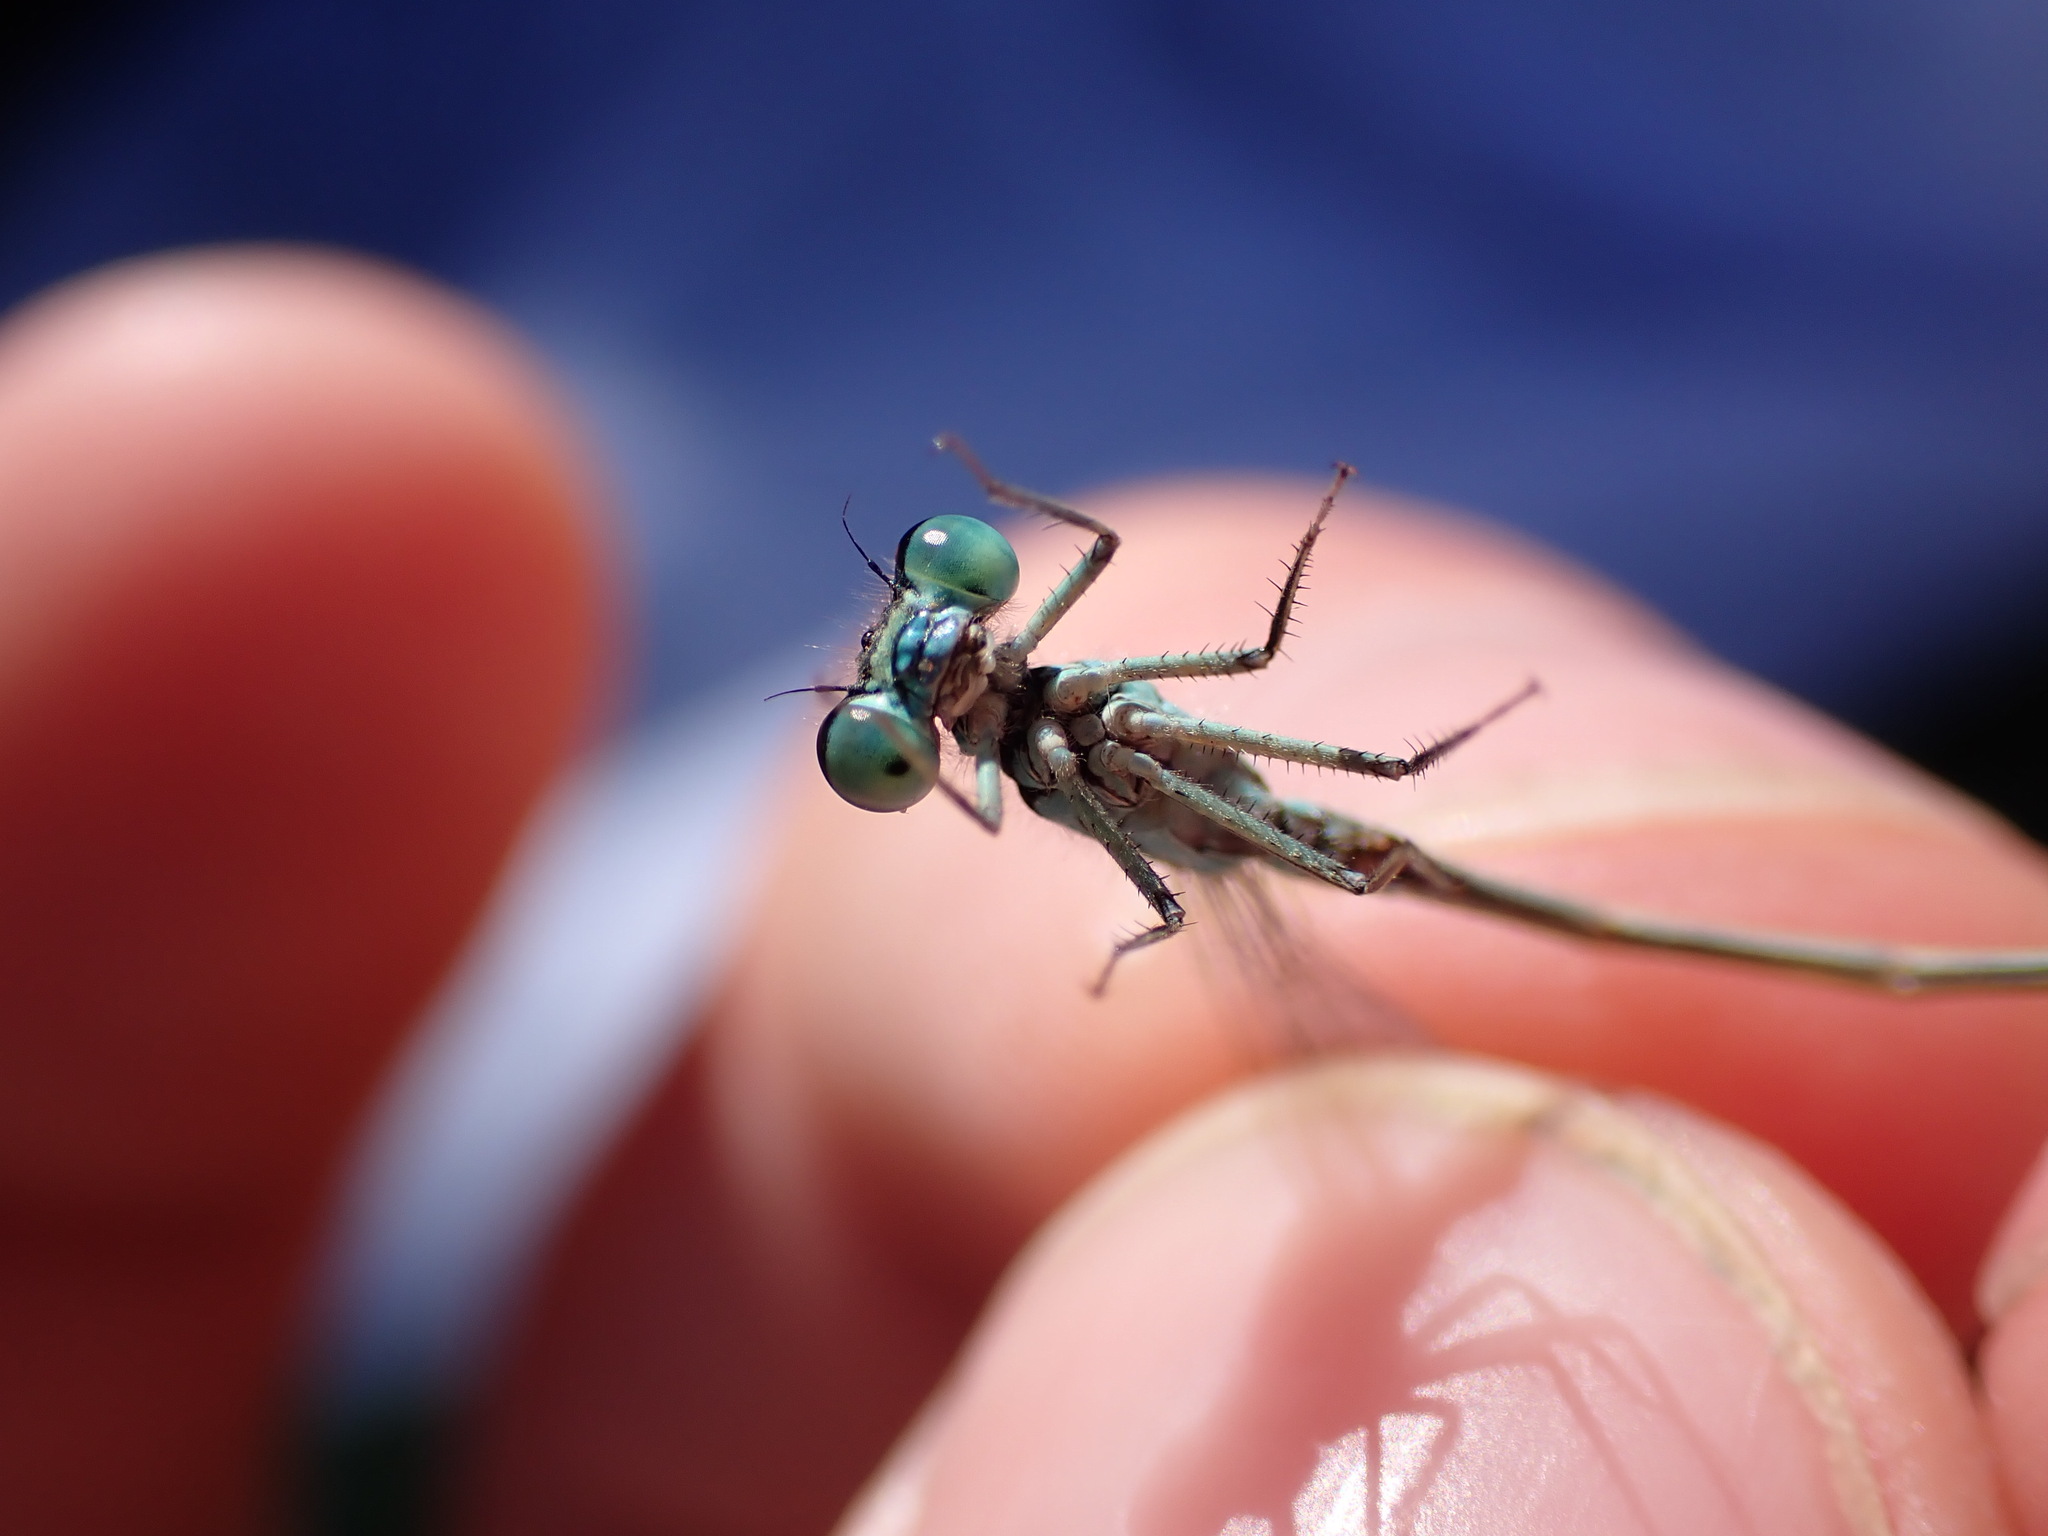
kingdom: Animalia
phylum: Arthropoda
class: Insecta
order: Odonata
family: Coenagrionidae
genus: Ischnura
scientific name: Ischnura elegans
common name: Blue-tailed damselfly
